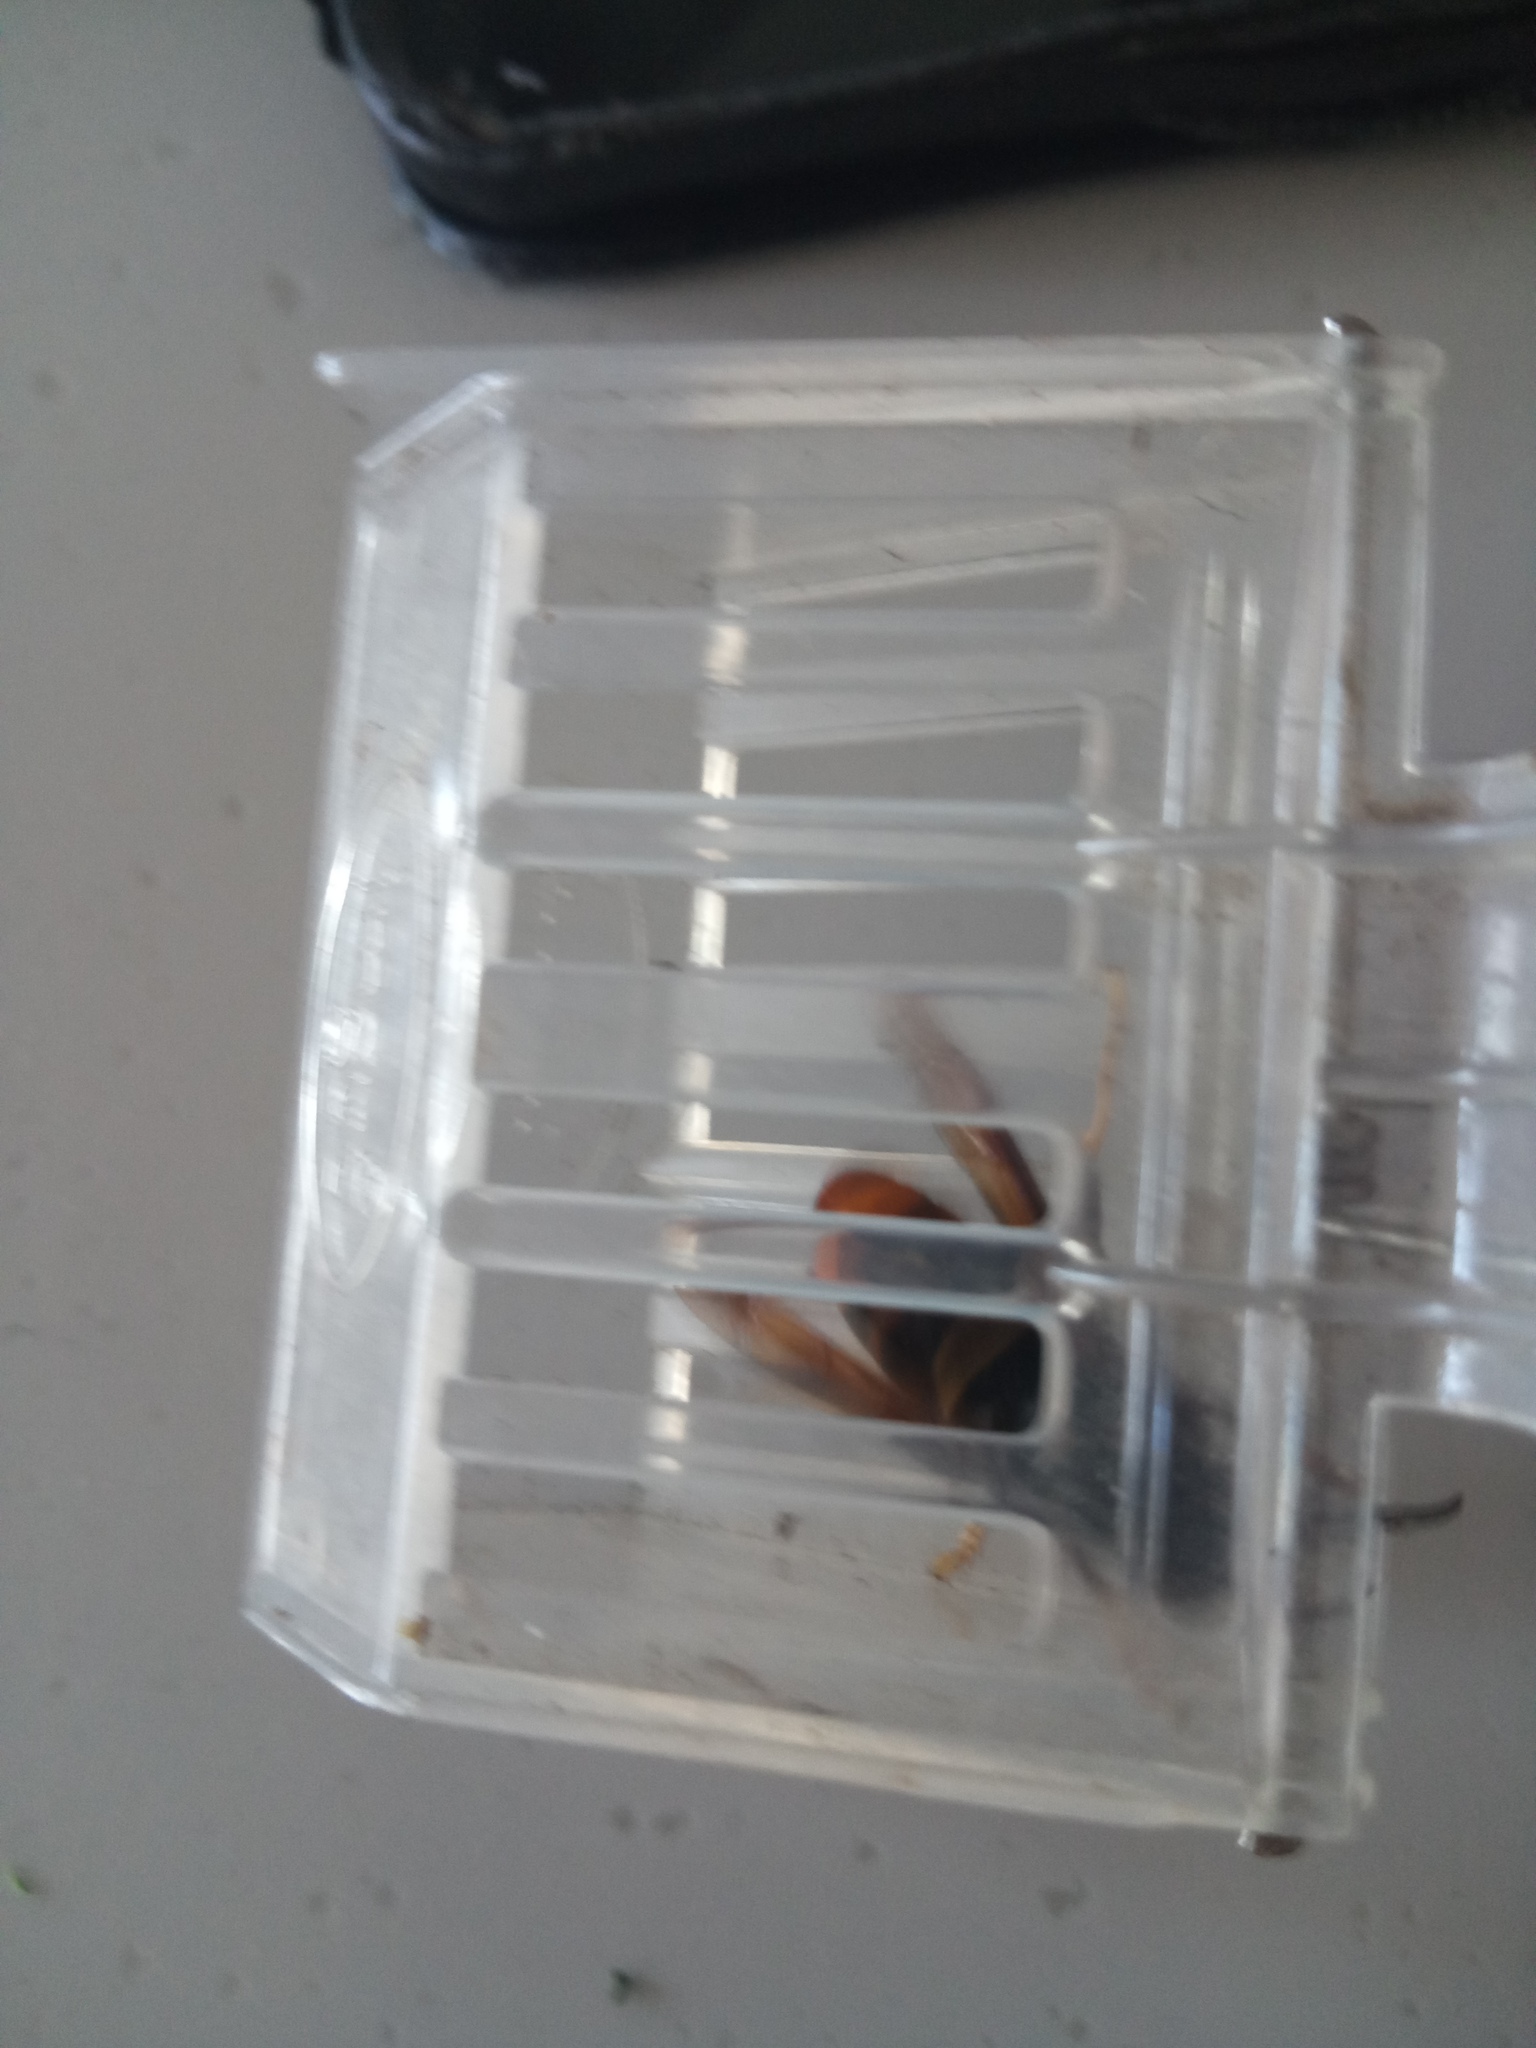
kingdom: Animalia
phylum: Arthropoda
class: Insecta
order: Hymenoptera
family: Vespidae
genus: Vespa
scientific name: Vespa velutina
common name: Asian hornet
